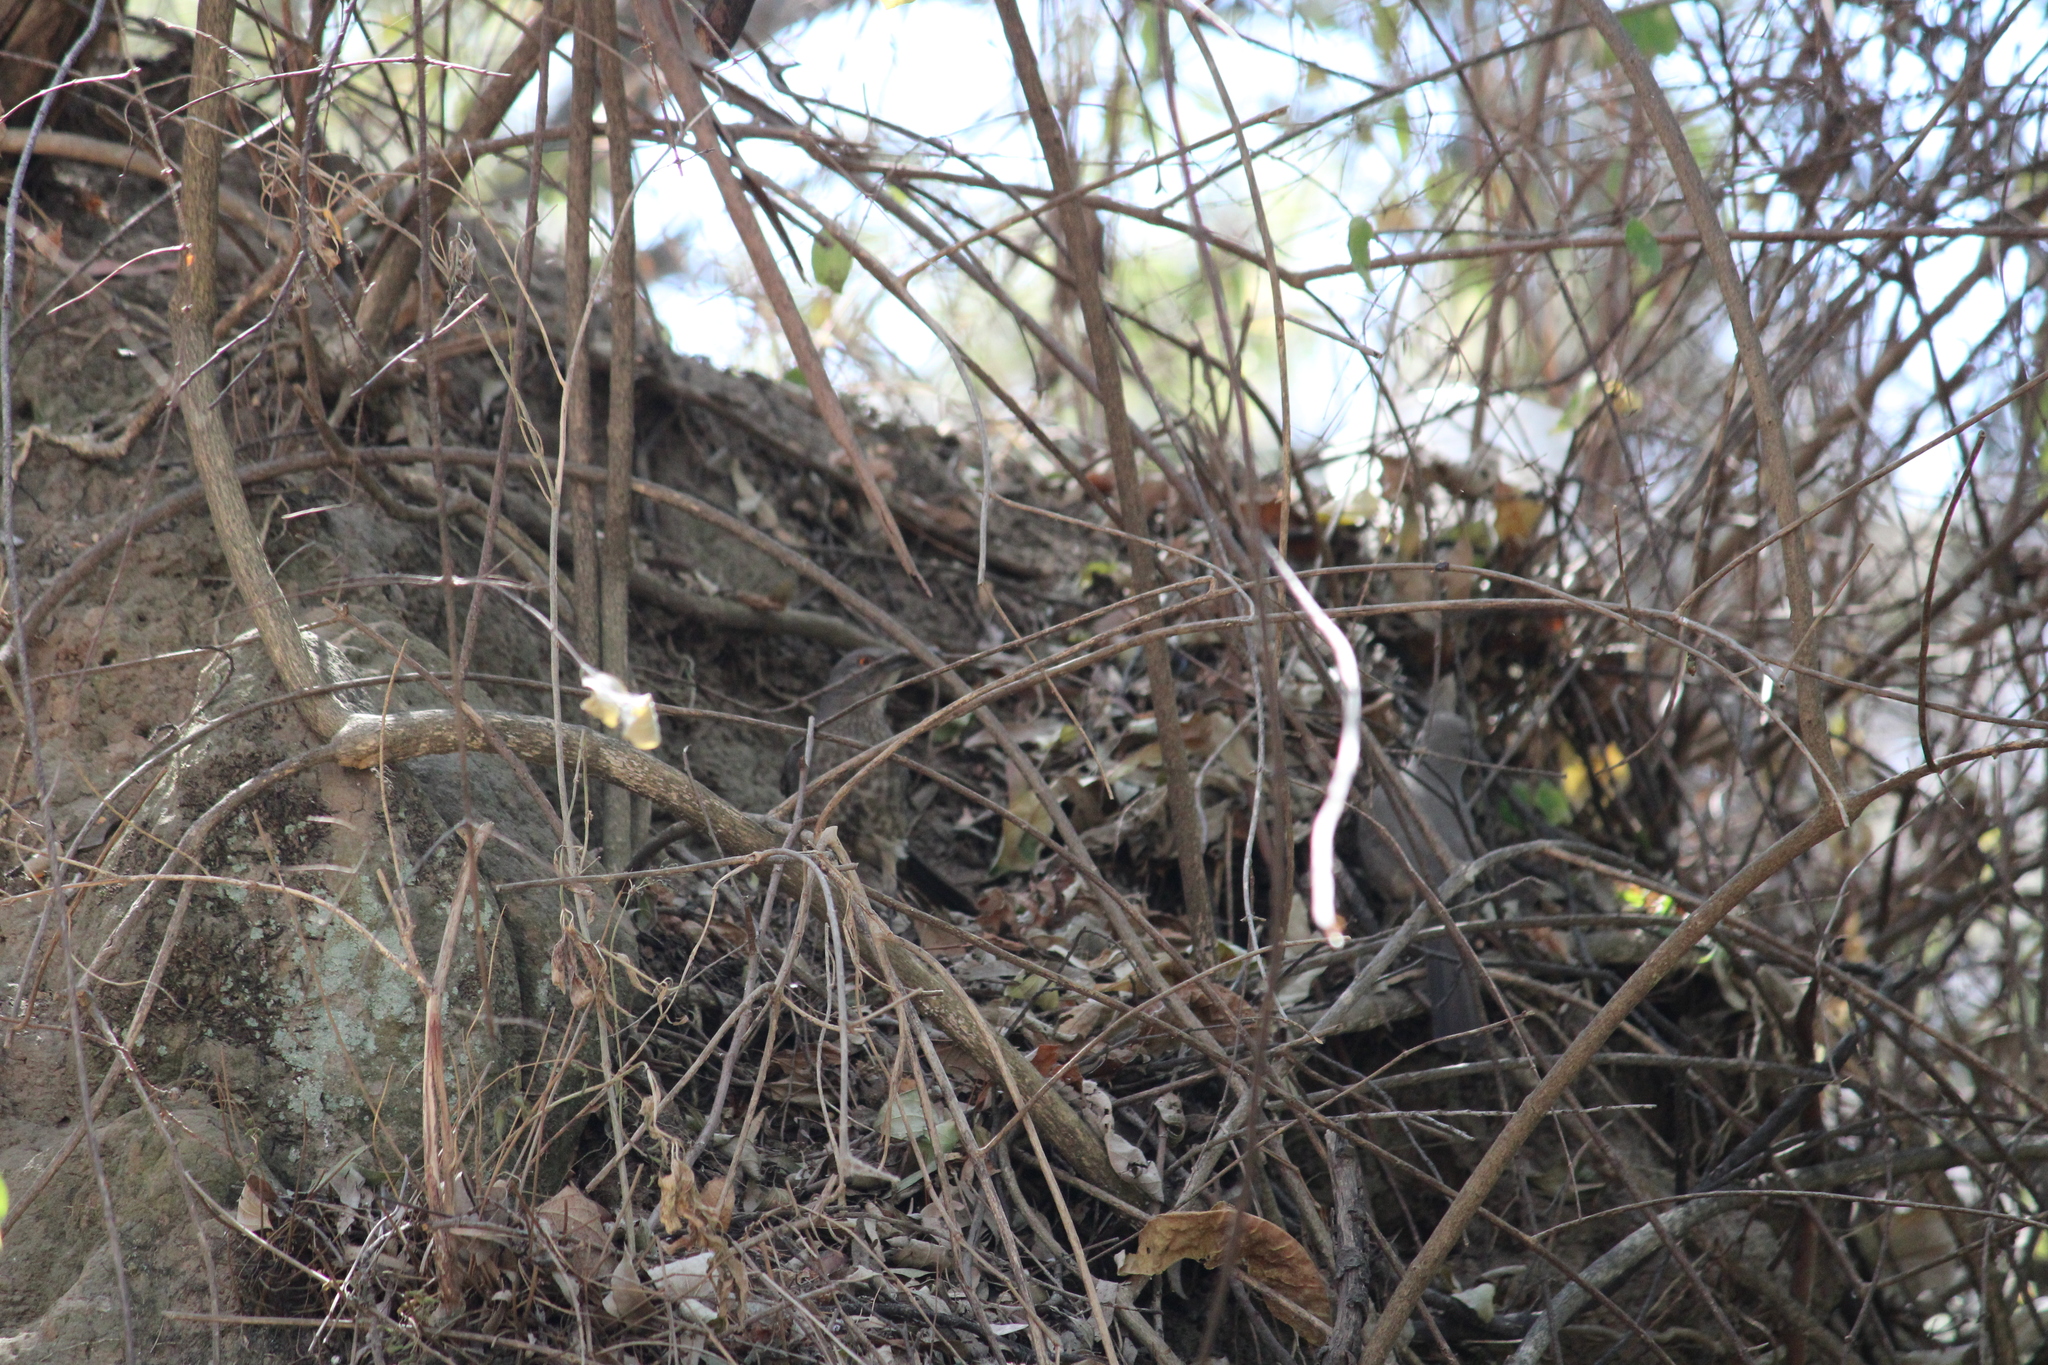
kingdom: Animalia
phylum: Chordata
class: Aves
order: Passeriformes
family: Mimidae
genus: Toxostoma
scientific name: Toxostoma curvirostre
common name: Curve-billed thrasher
